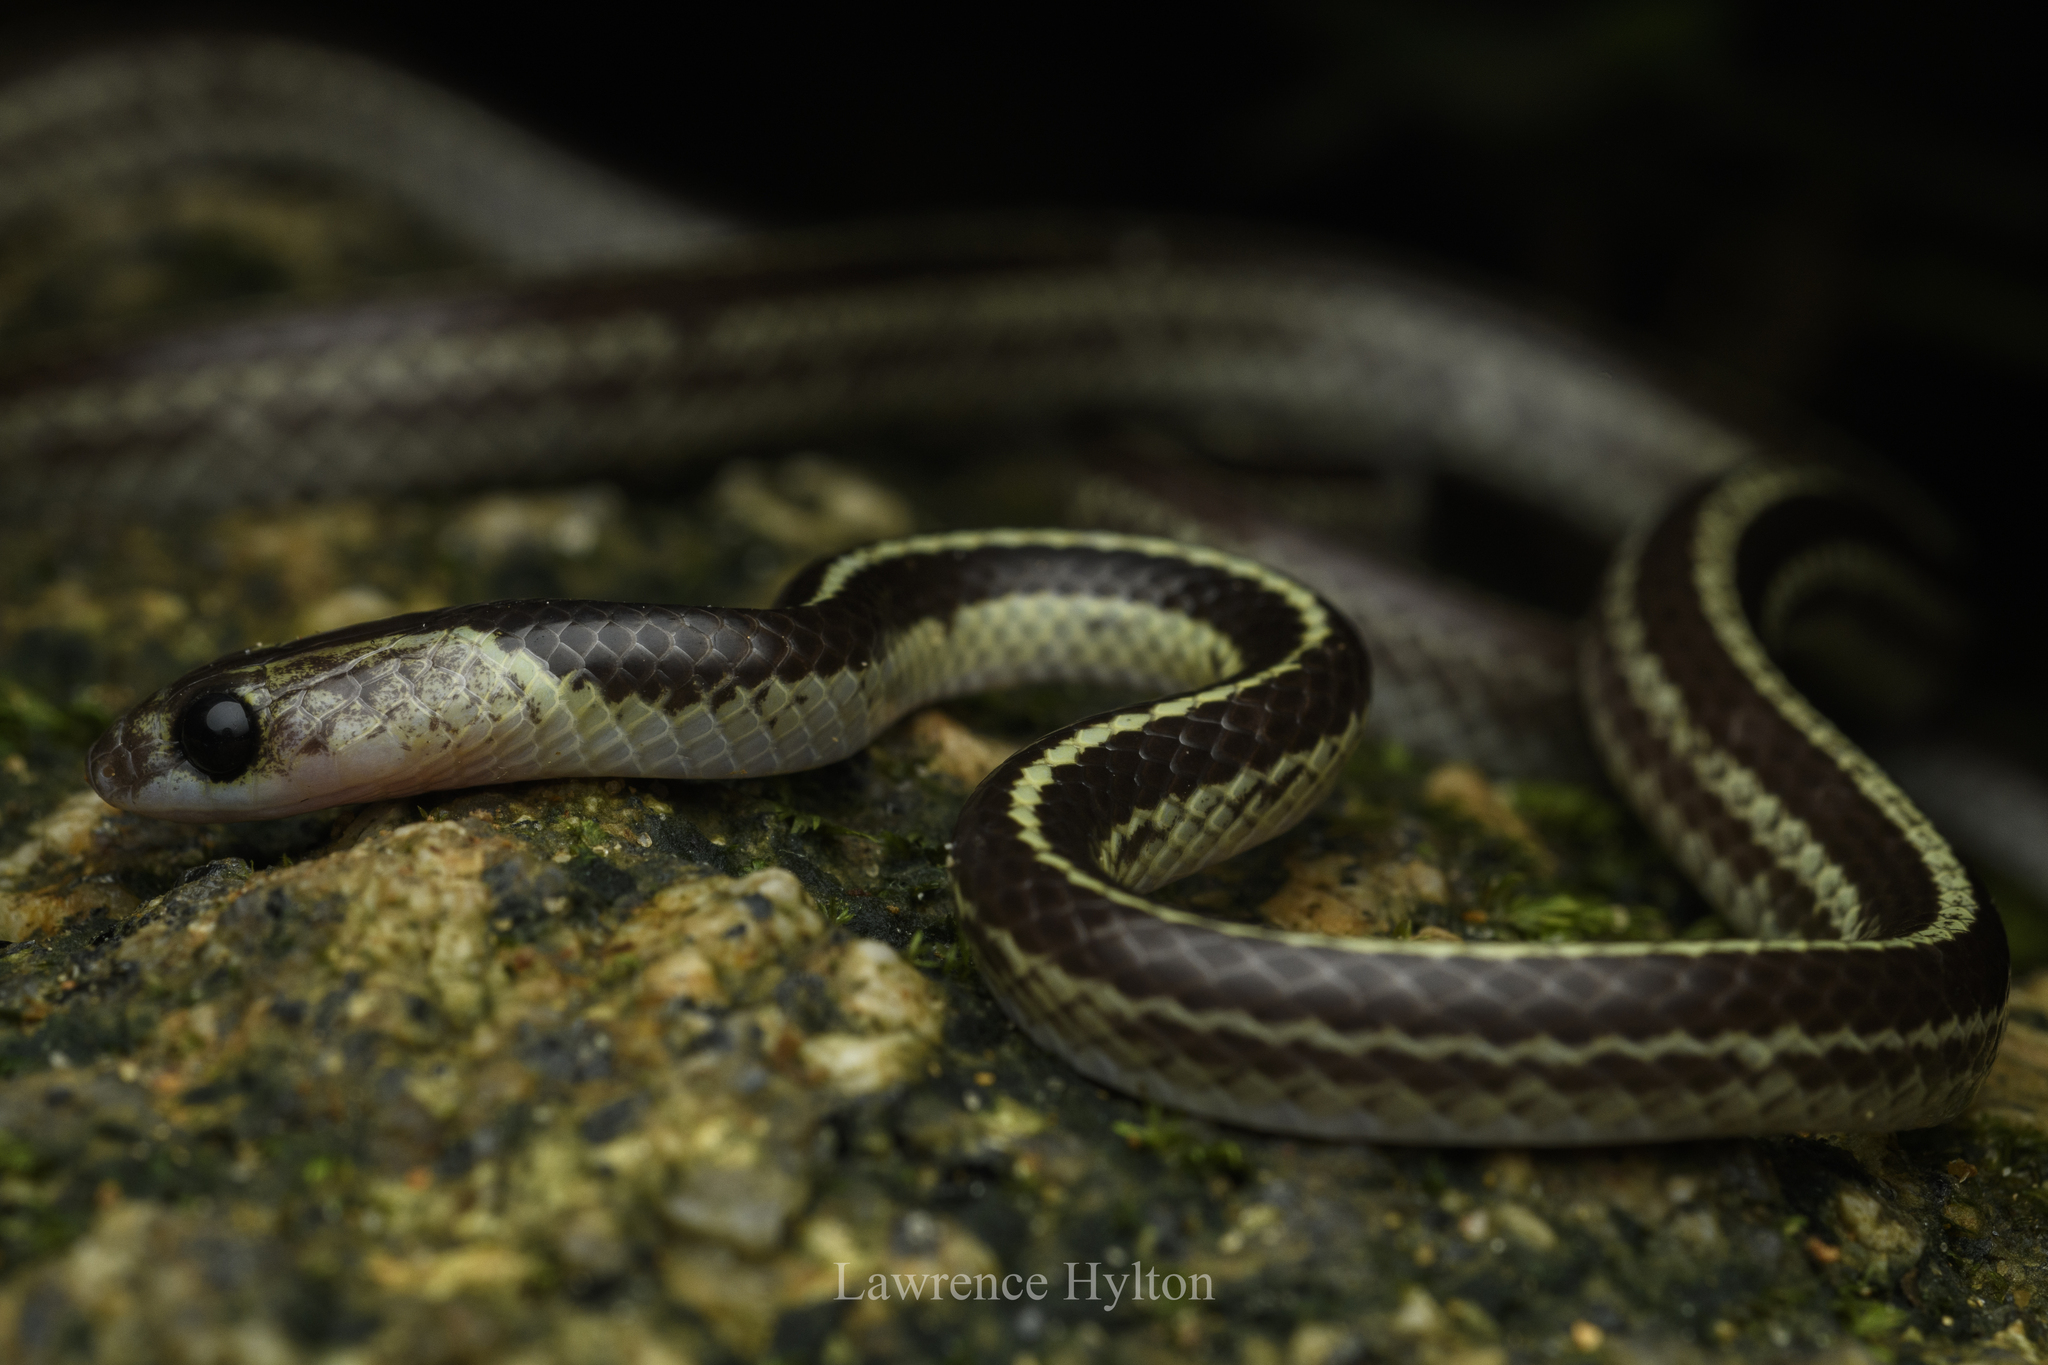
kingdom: Animalia
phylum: Chordata
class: Squamata
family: Colubridae
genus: Lycodon
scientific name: Lycodon subannulatus
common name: Malayan bridal snake
